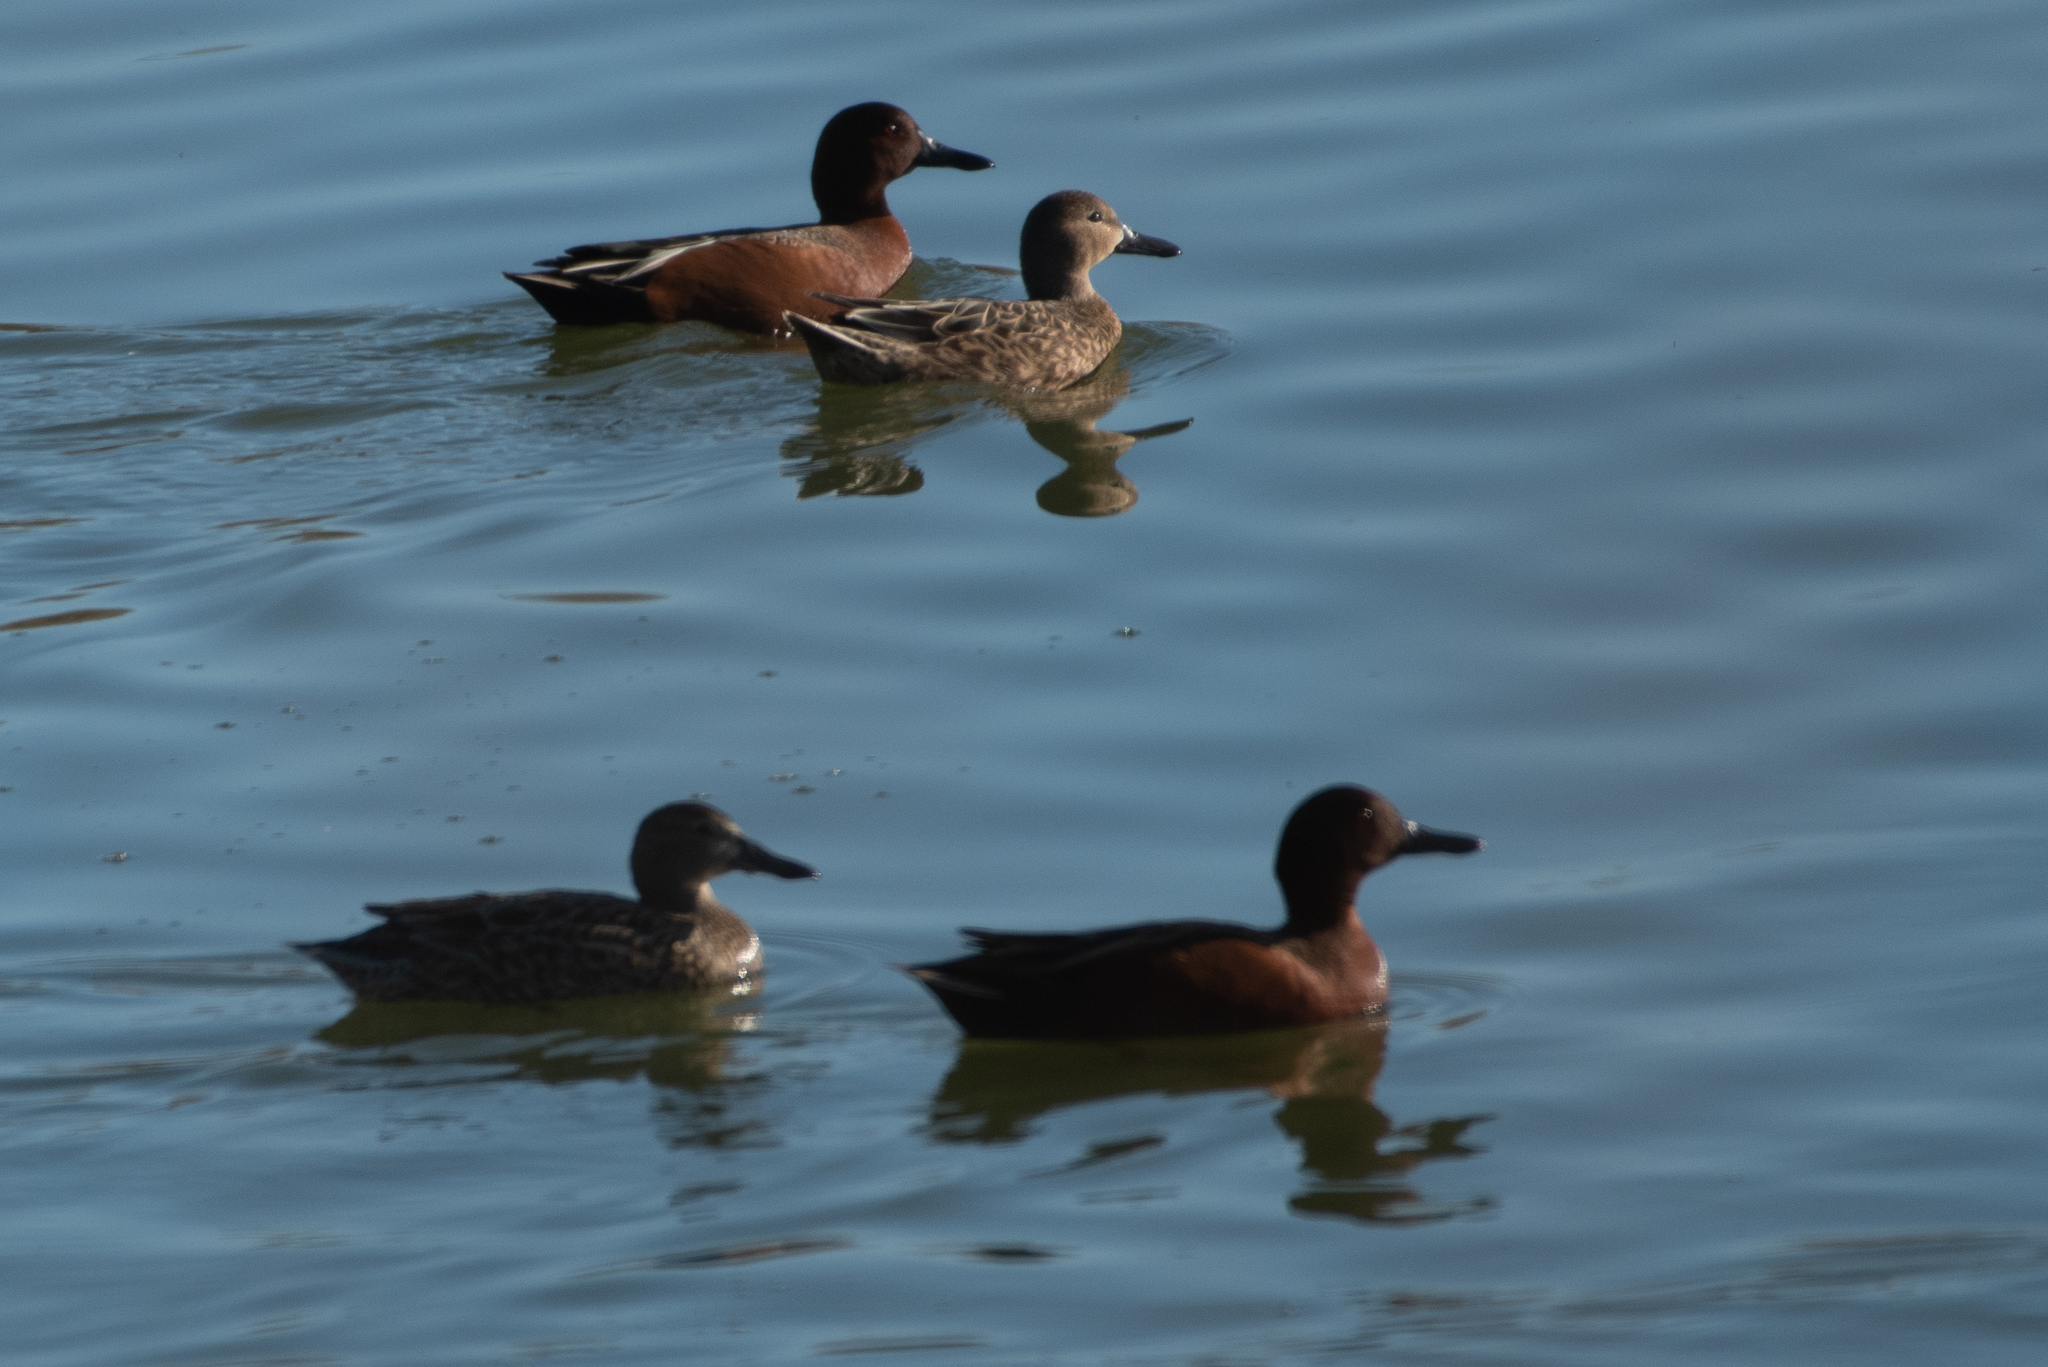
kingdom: Animalia
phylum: Chordata
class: Aves
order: Anseriformes
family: Anatidae
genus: Spatula
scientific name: Spatula cyanoptera
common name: Cinnamon teal
